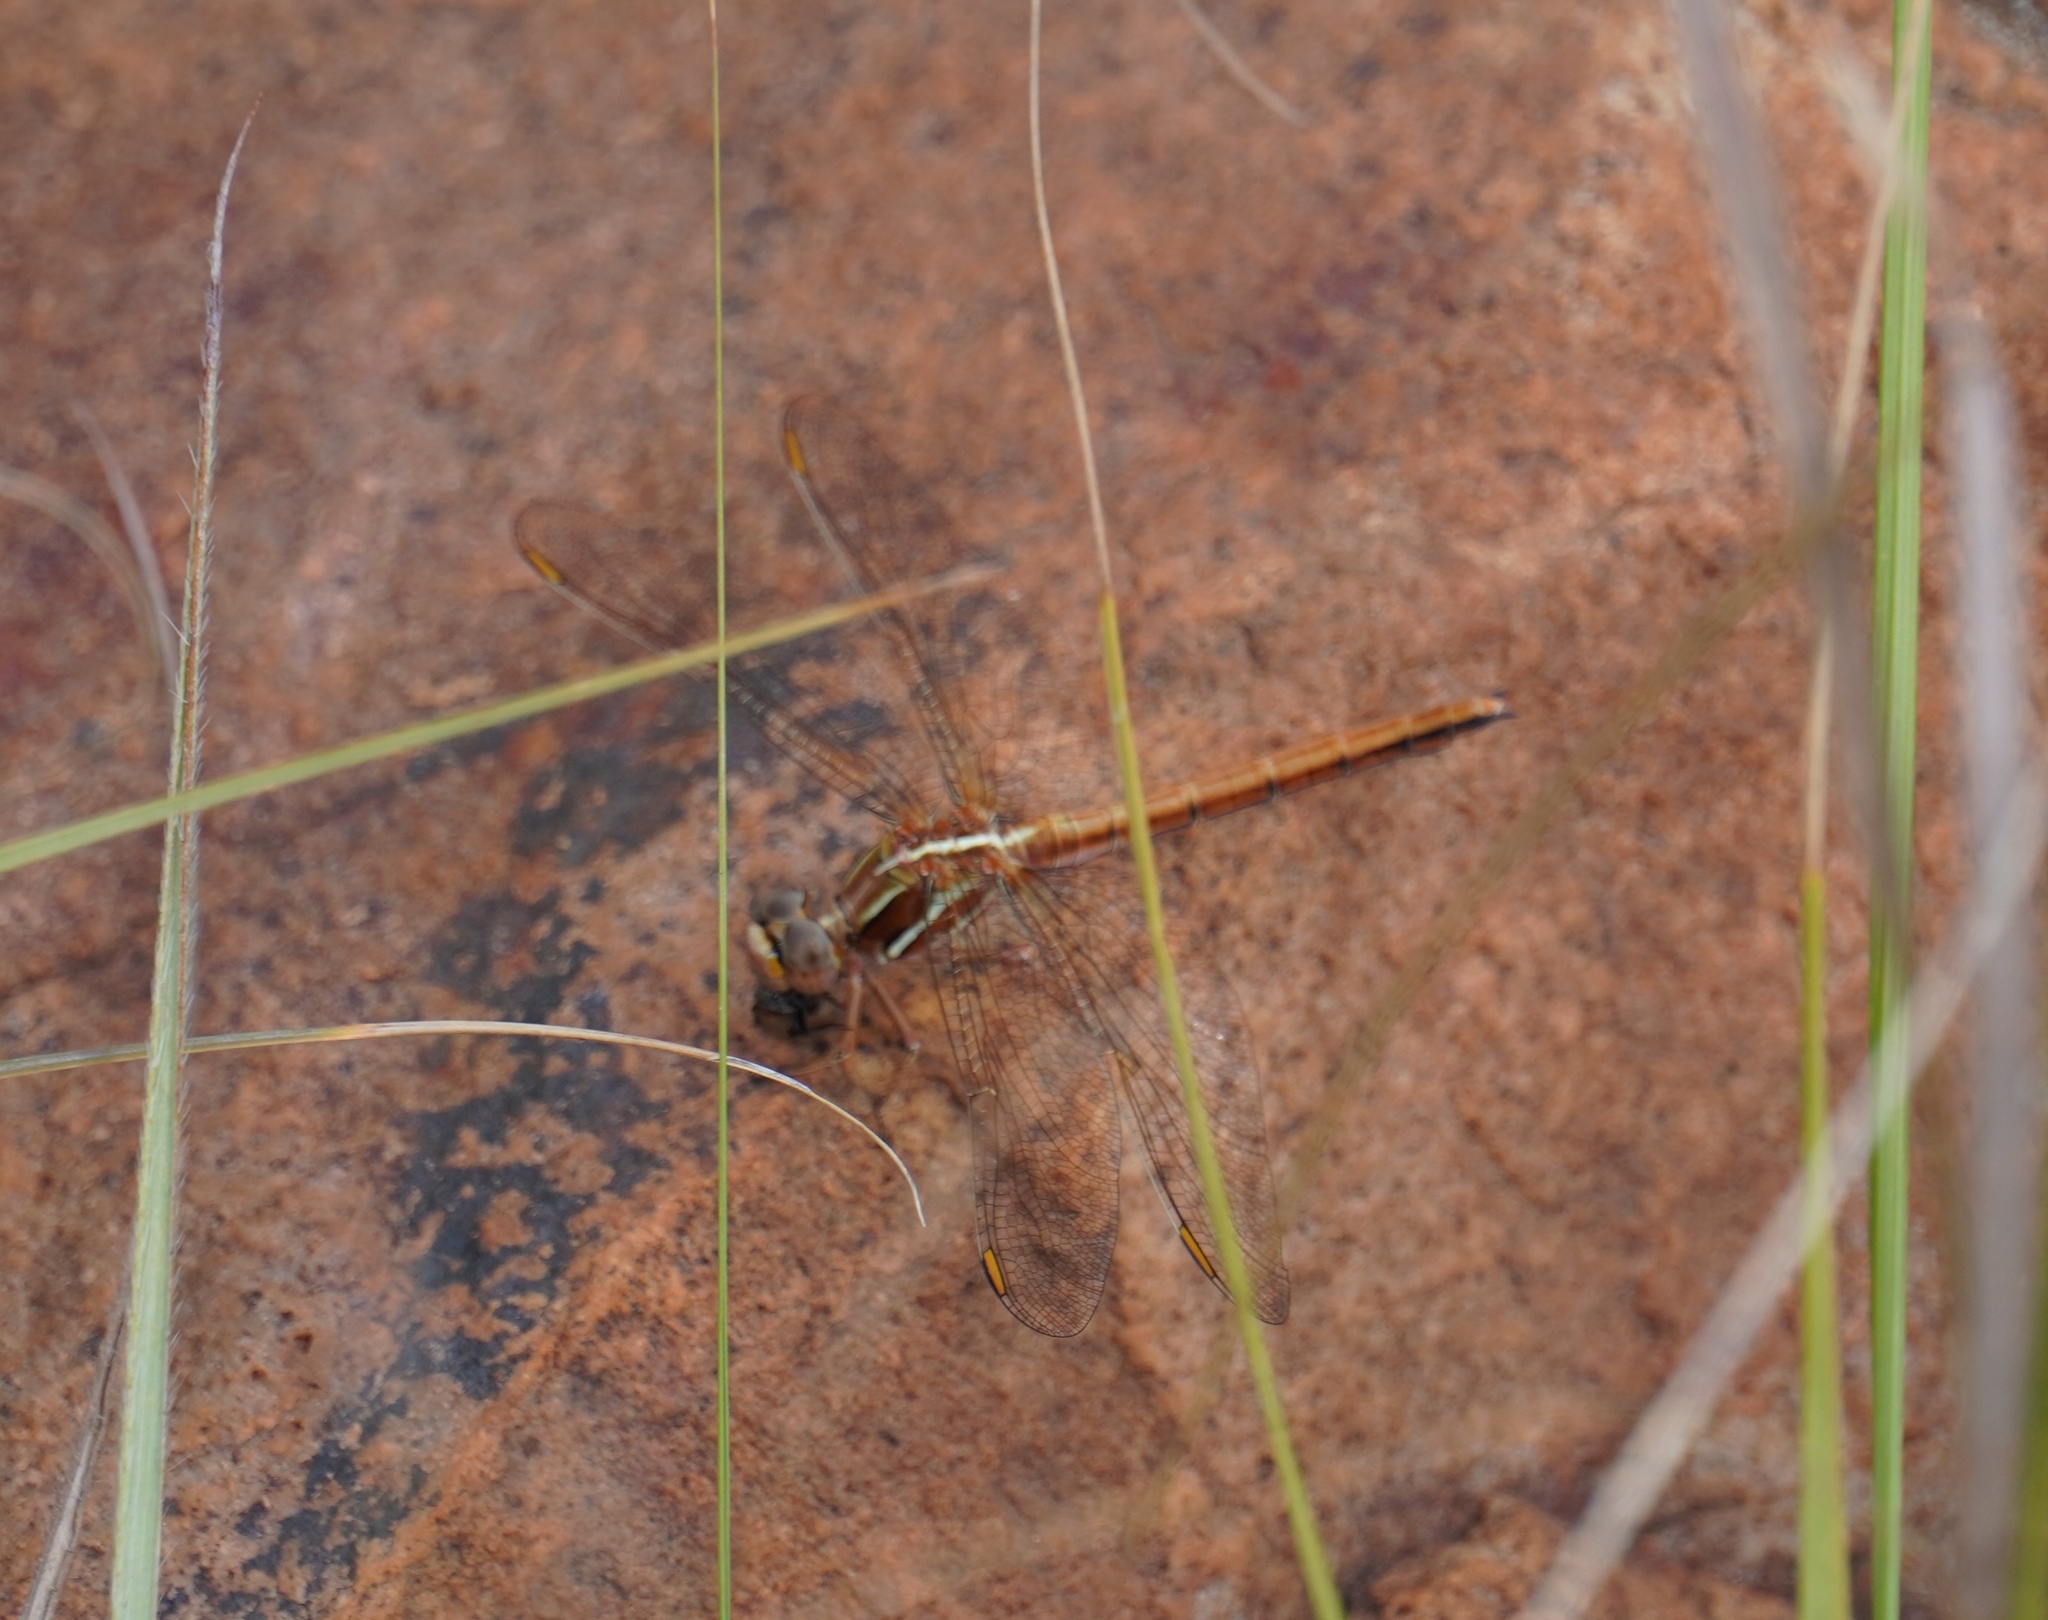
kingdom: Animalia
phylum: Arthropoda
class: Insecta
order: Odonata
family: Libellulidae
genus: Orthetrum
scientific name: Orthetrum caffrum
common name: Two-striped skimmer
